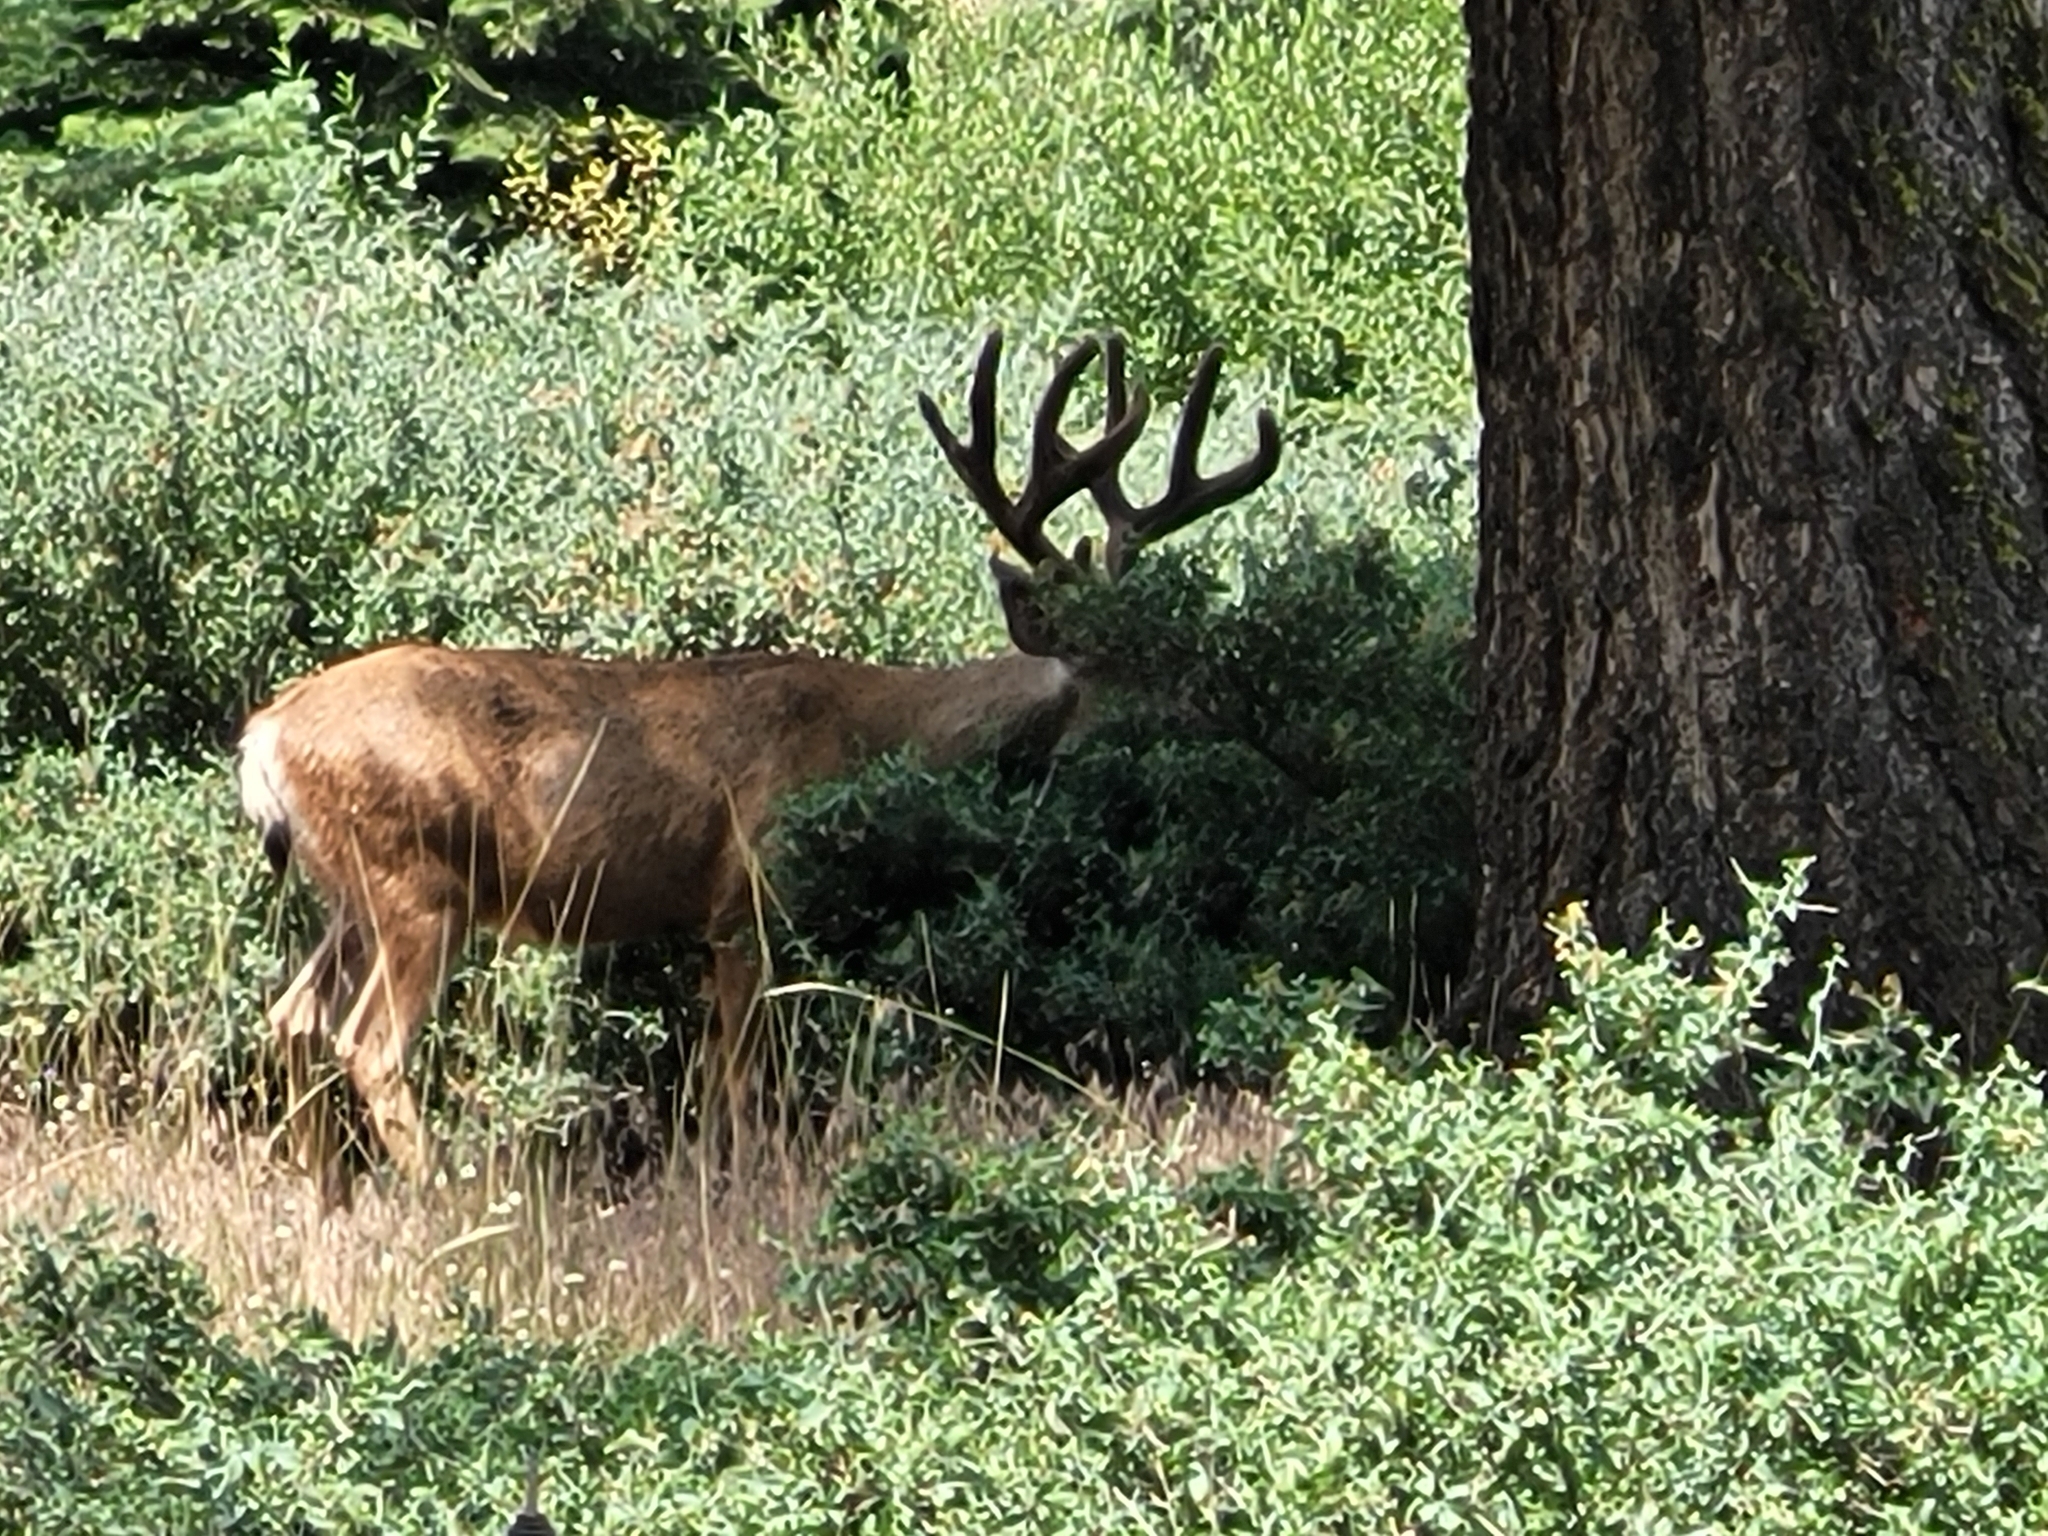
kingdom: Animalia
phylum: Chordata
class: Mammalia
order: Artiodactyla
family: Cervidae
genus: Odocoileus
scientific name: Odocoileus hemionus
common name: Mule deer
